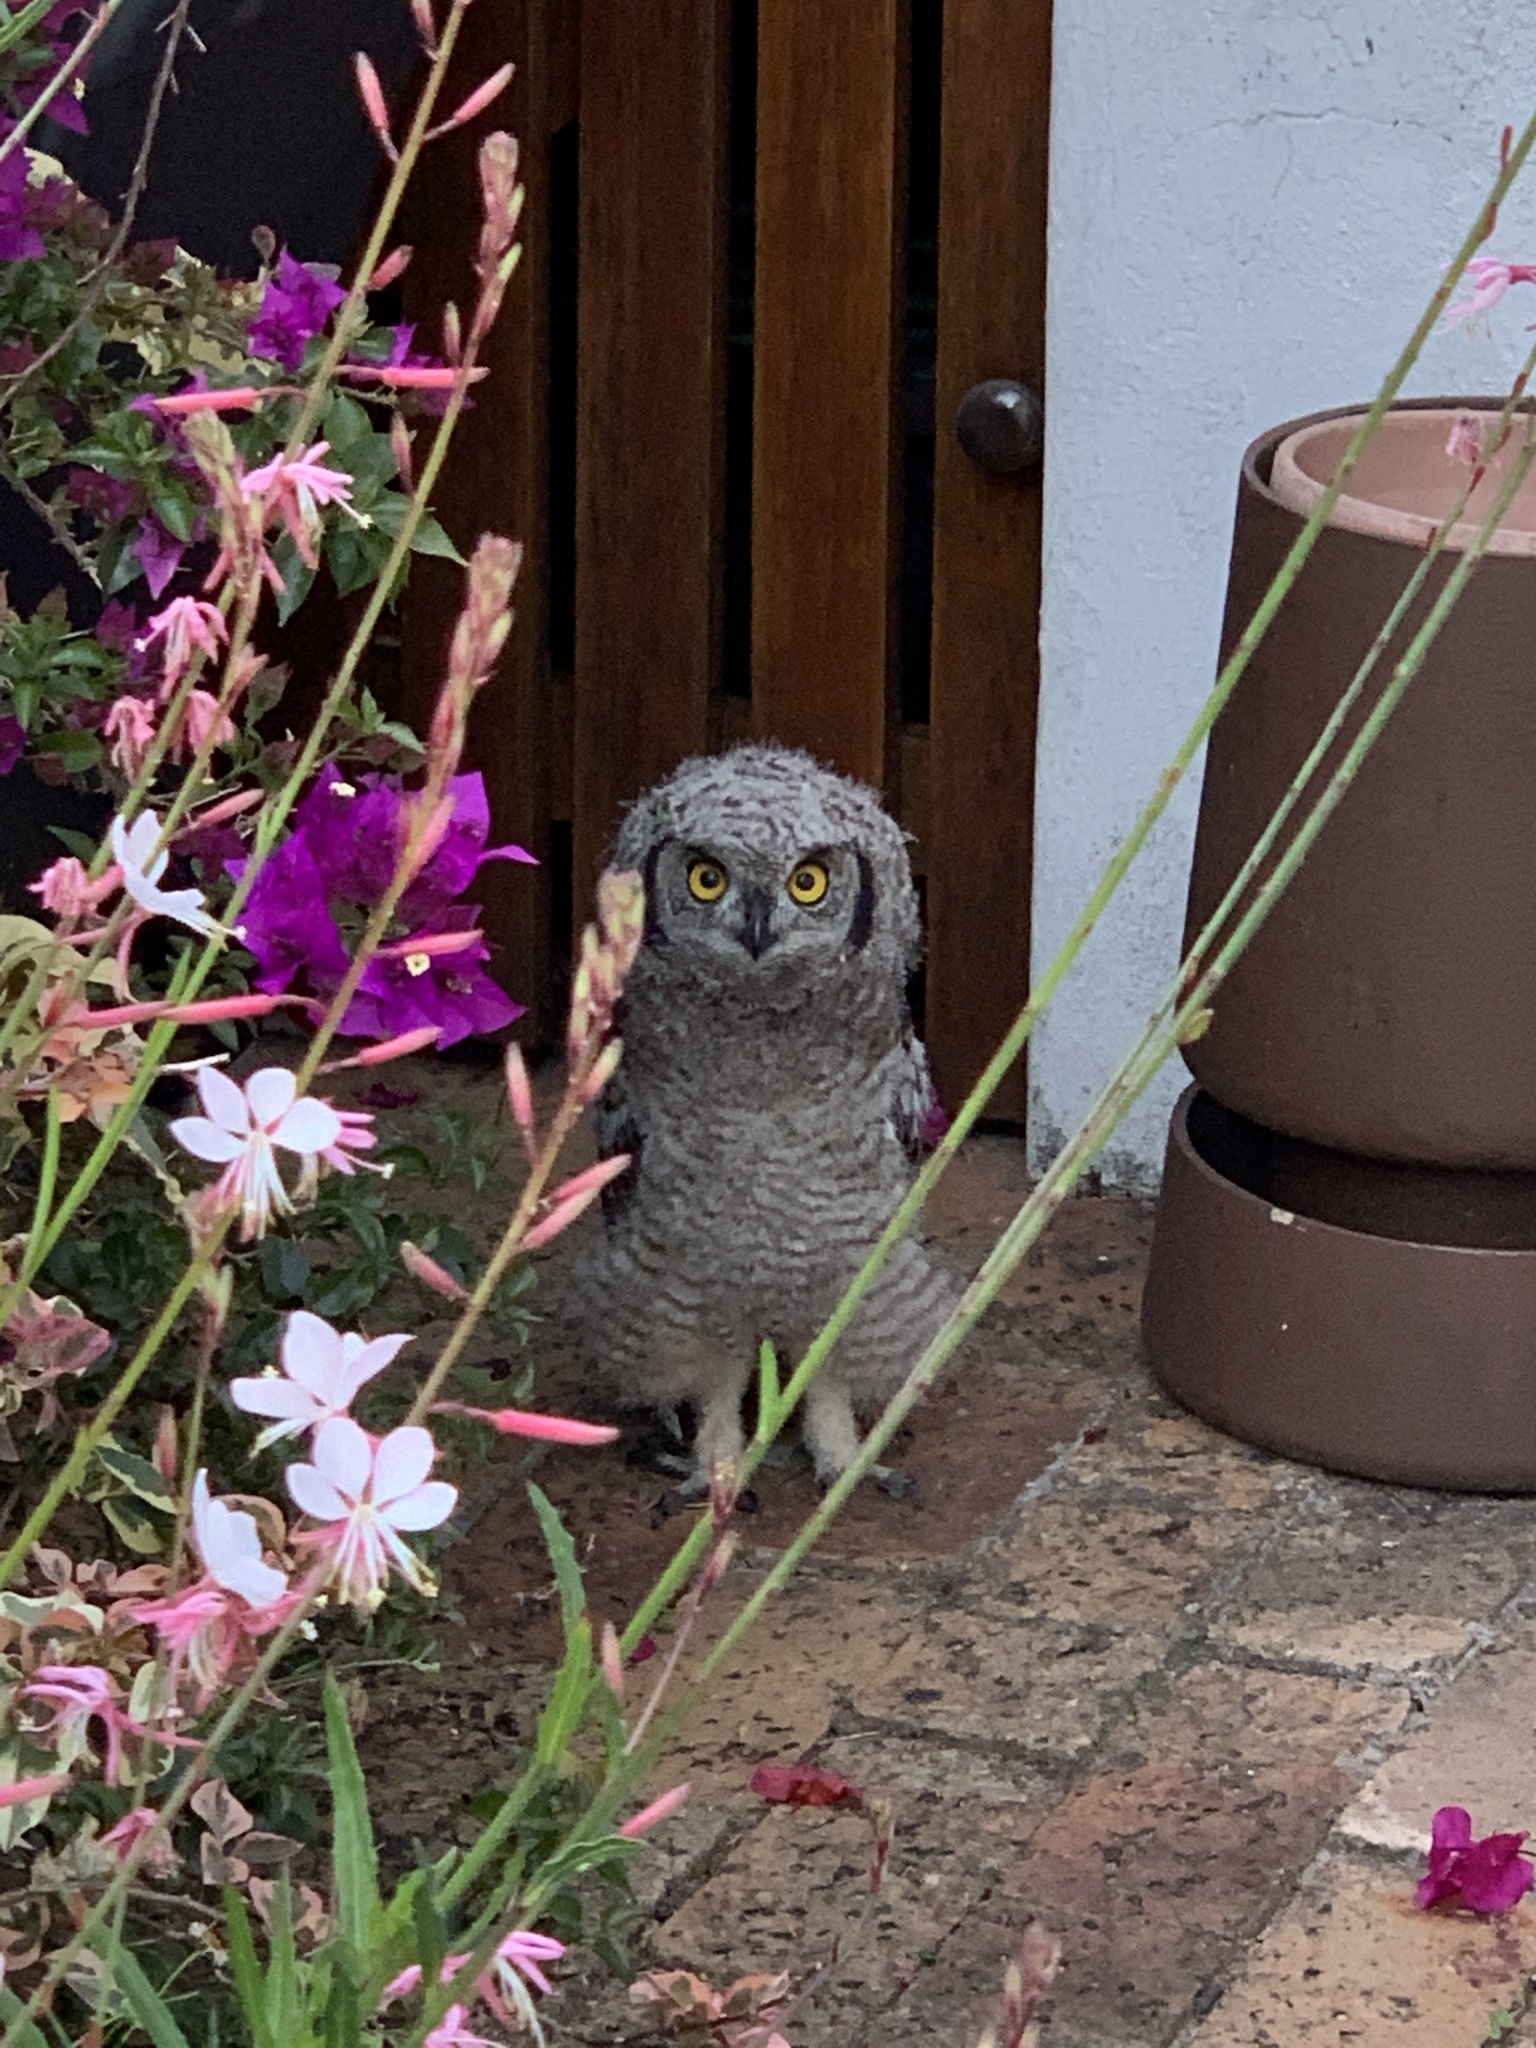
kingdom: Animalia
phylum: Chordata
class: Aves
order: Strigiformes
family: Strigidae
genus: Bubo
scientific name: Bubo africanus
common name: Spotted eagle-owl
